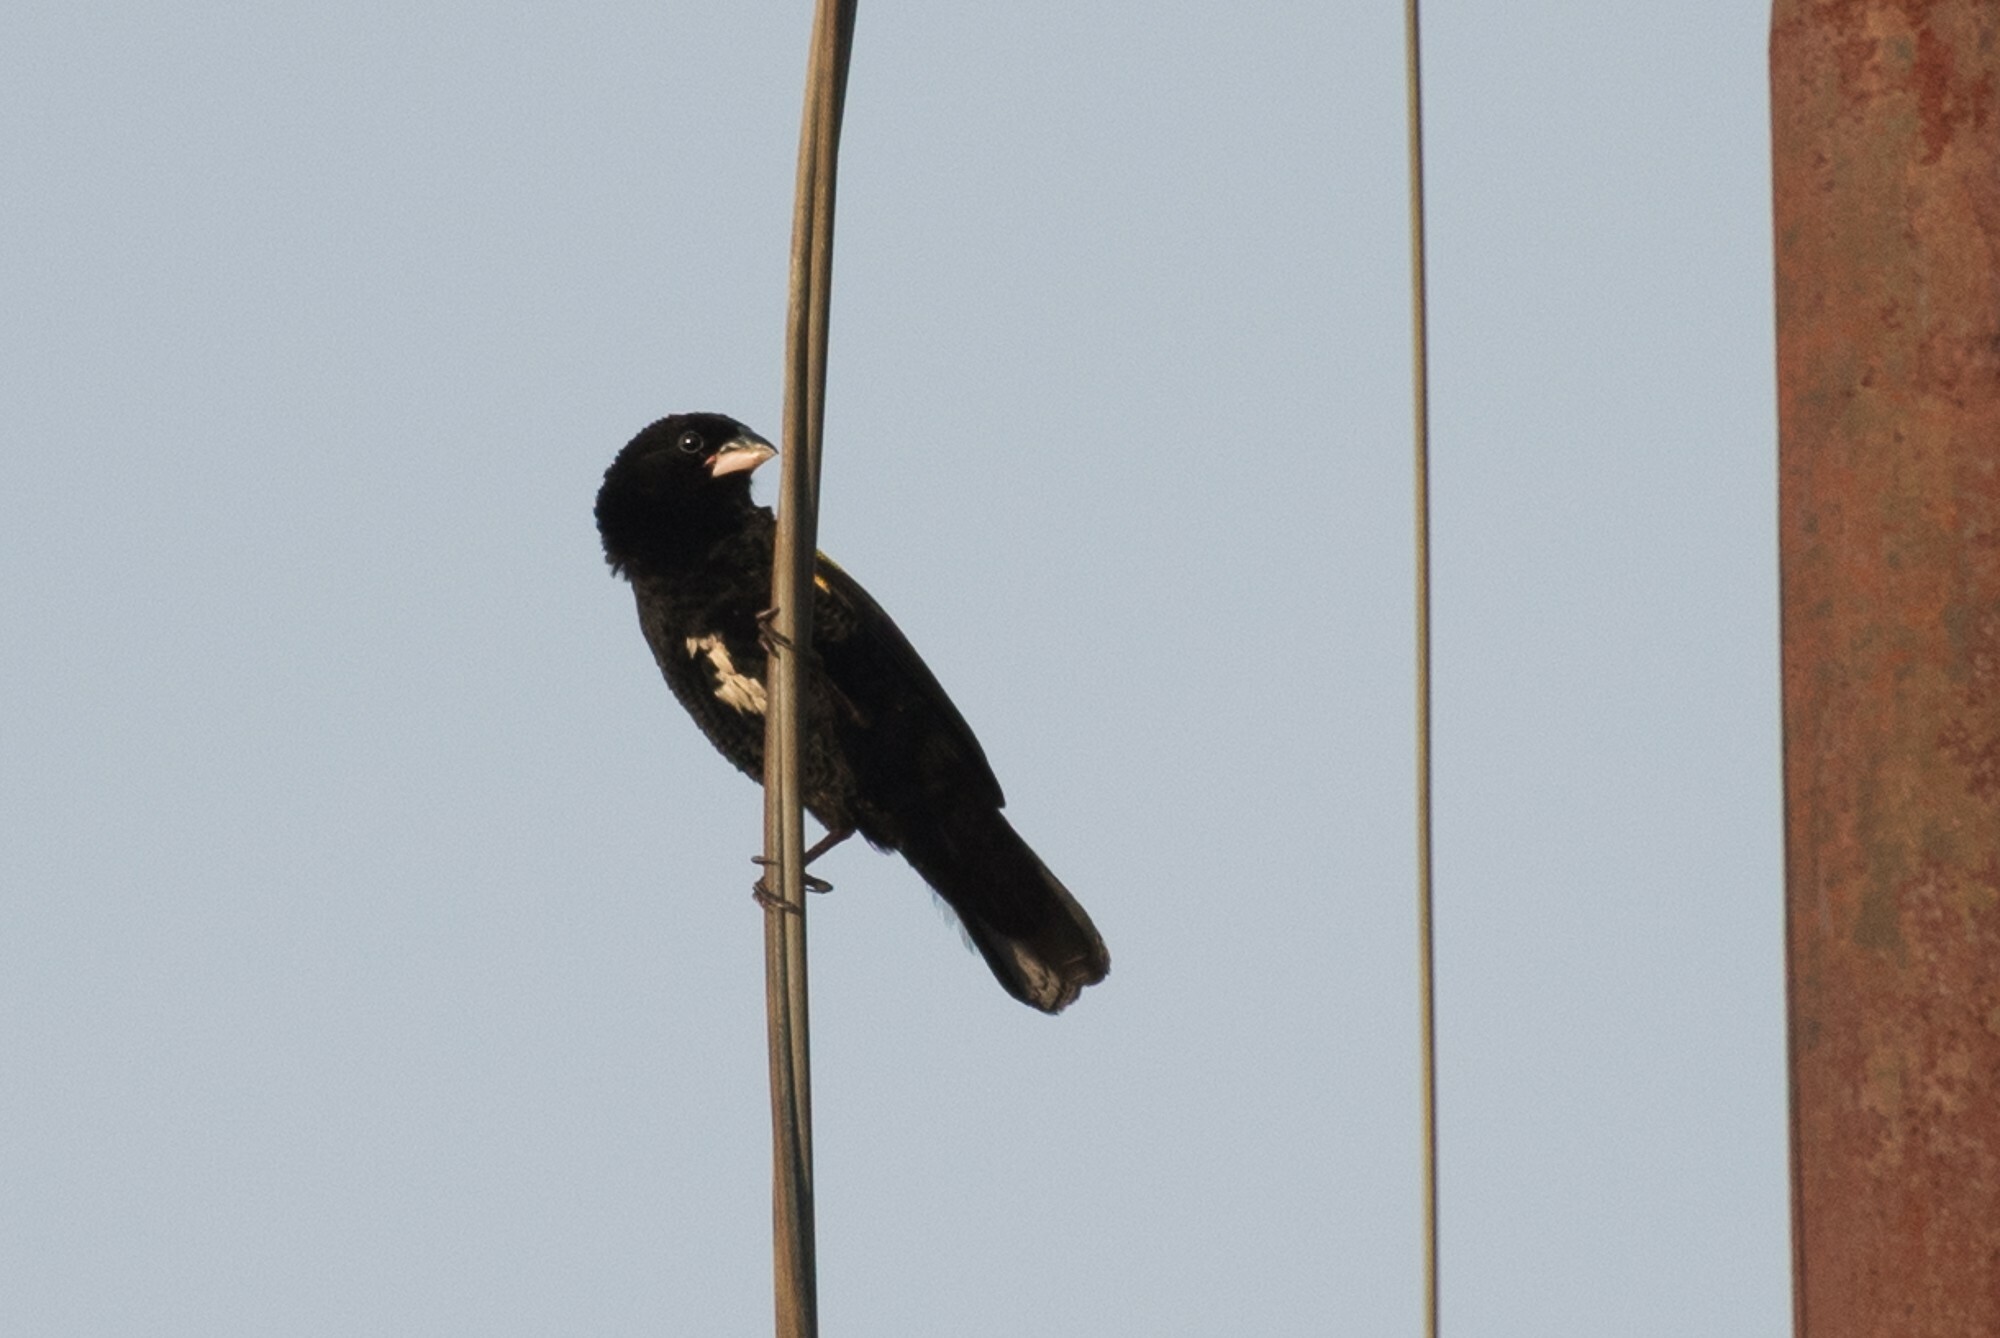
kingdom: Animalia
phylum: Chordata
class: Aves
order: Passeriformes
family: Ploceidae
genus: Euplectes
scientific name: Euplectes capensis
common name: Yellow bishop
